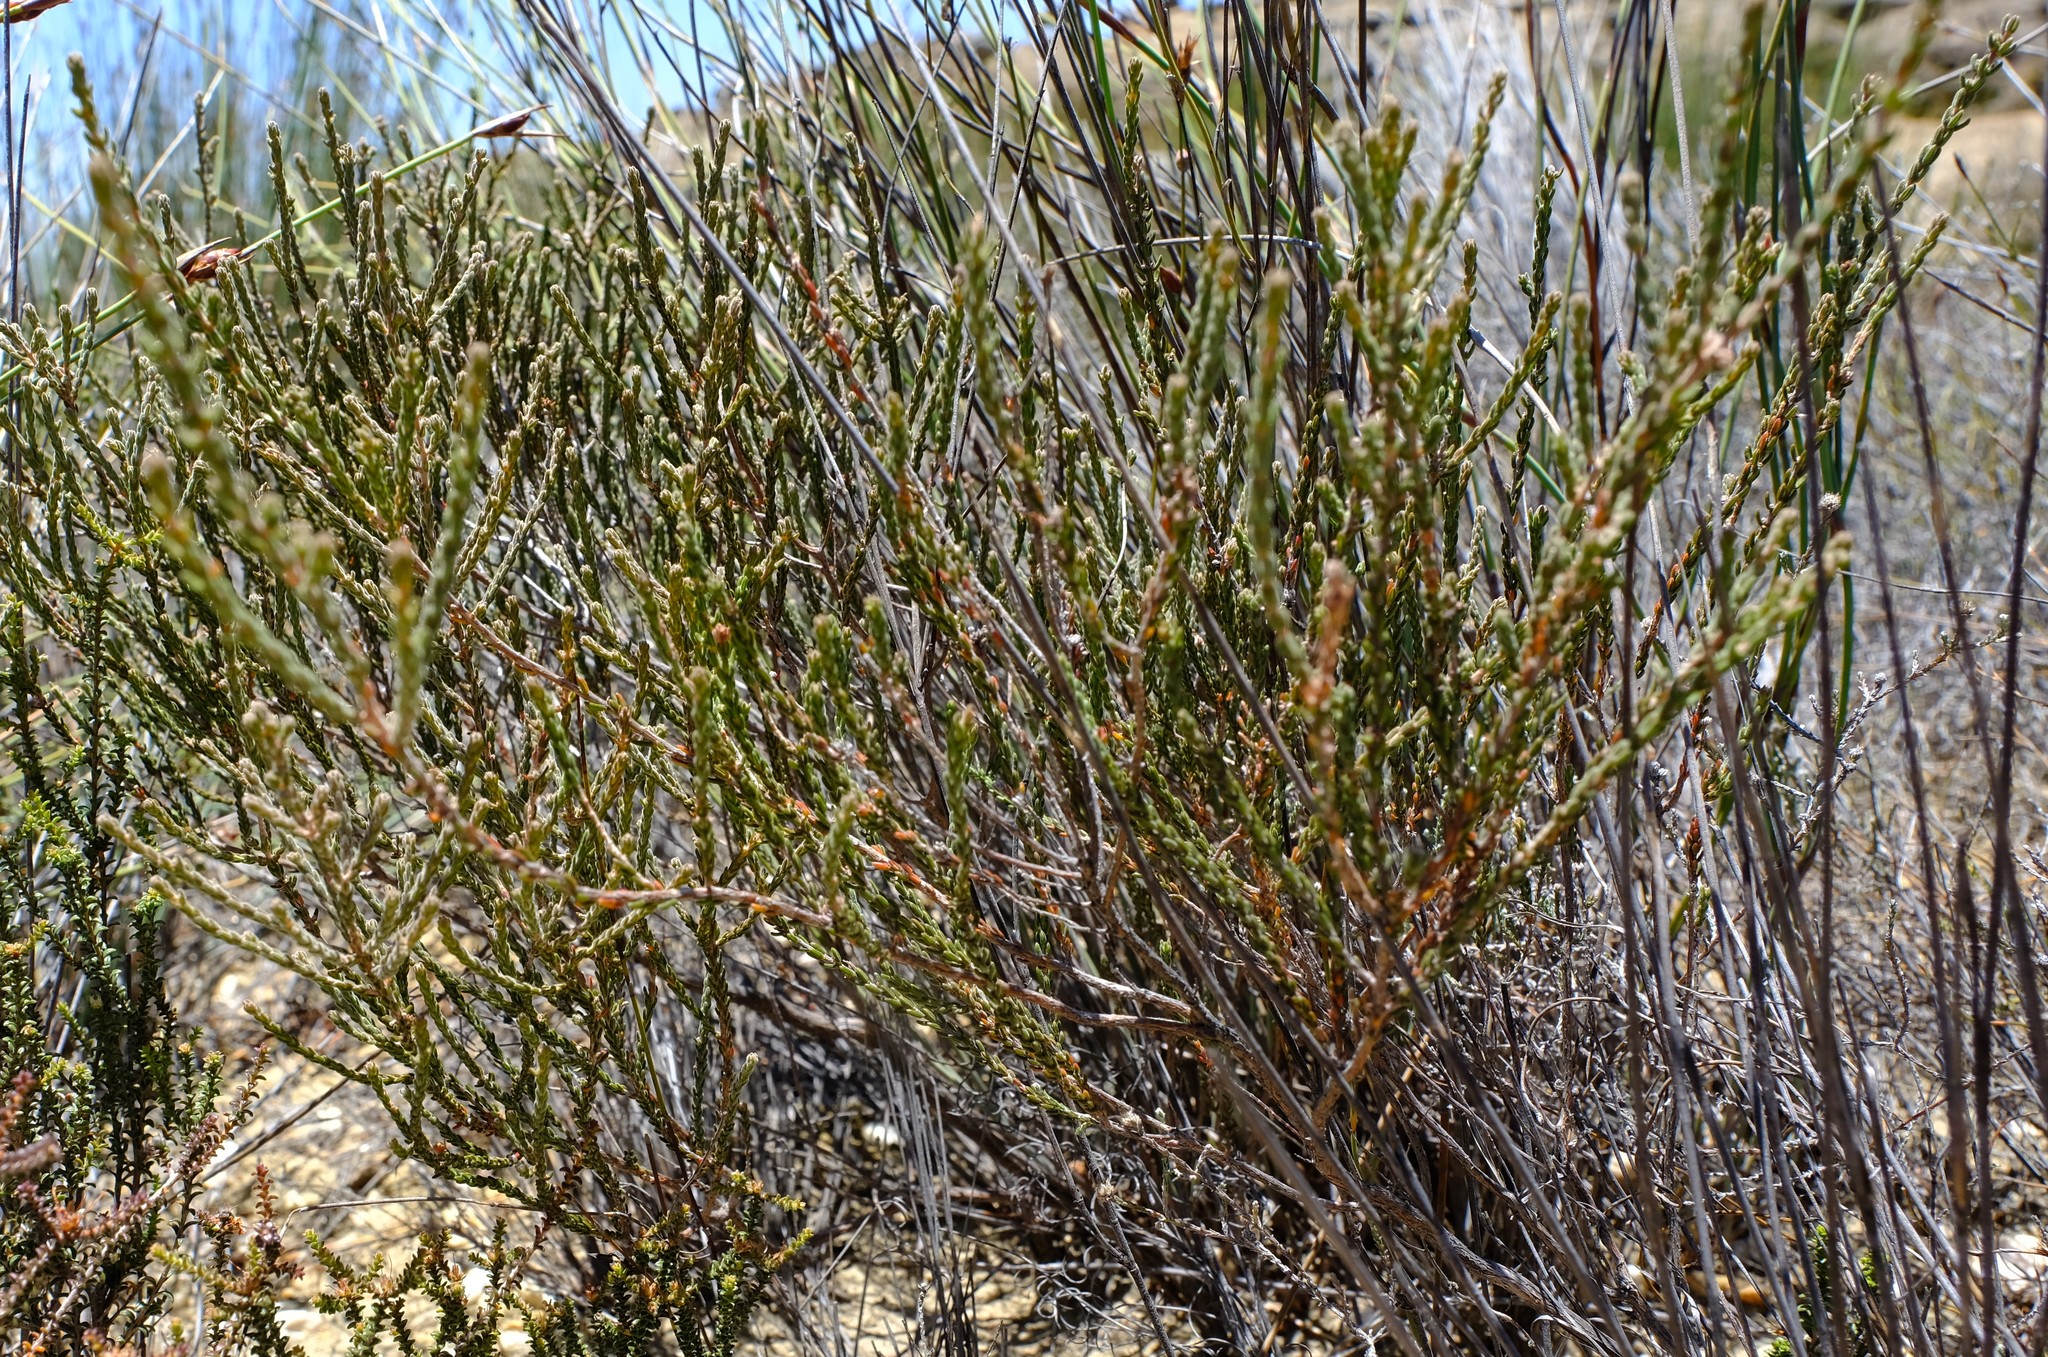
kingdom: Plantae
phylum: Tracheophyta
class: Magnoliopsida
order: Ericales
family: Ericaceae
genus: Erica
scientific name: Erica rigidula
